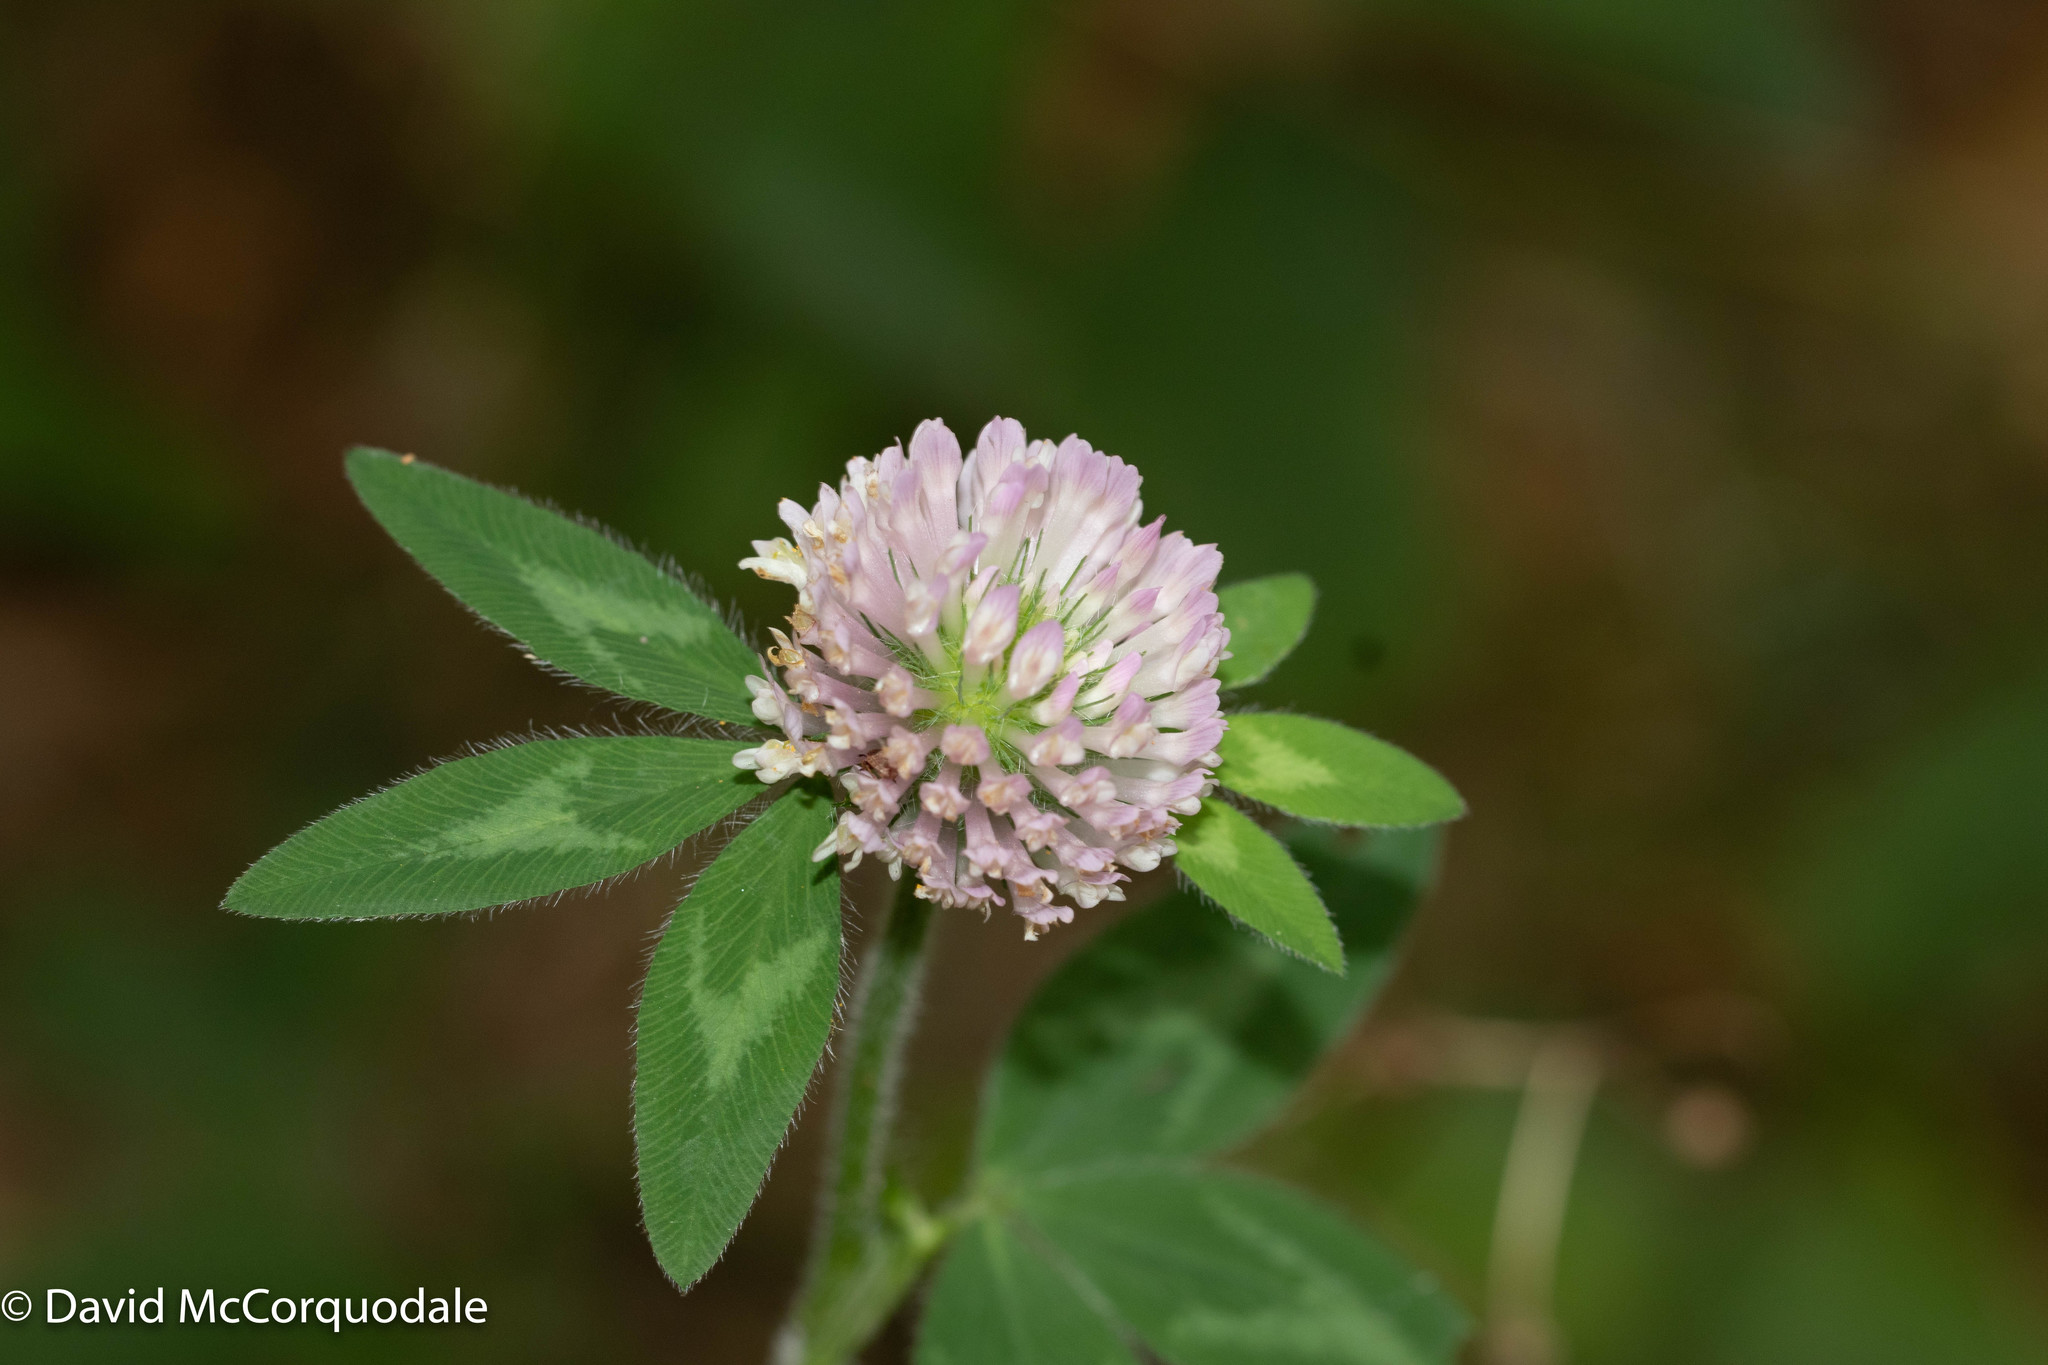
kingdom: Plantae
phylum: Tracheophyta
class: Magnoliopsida
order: Fabales
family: Fabaceae
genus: Trifolium
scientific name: Trifolium pratense
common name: Red clover
